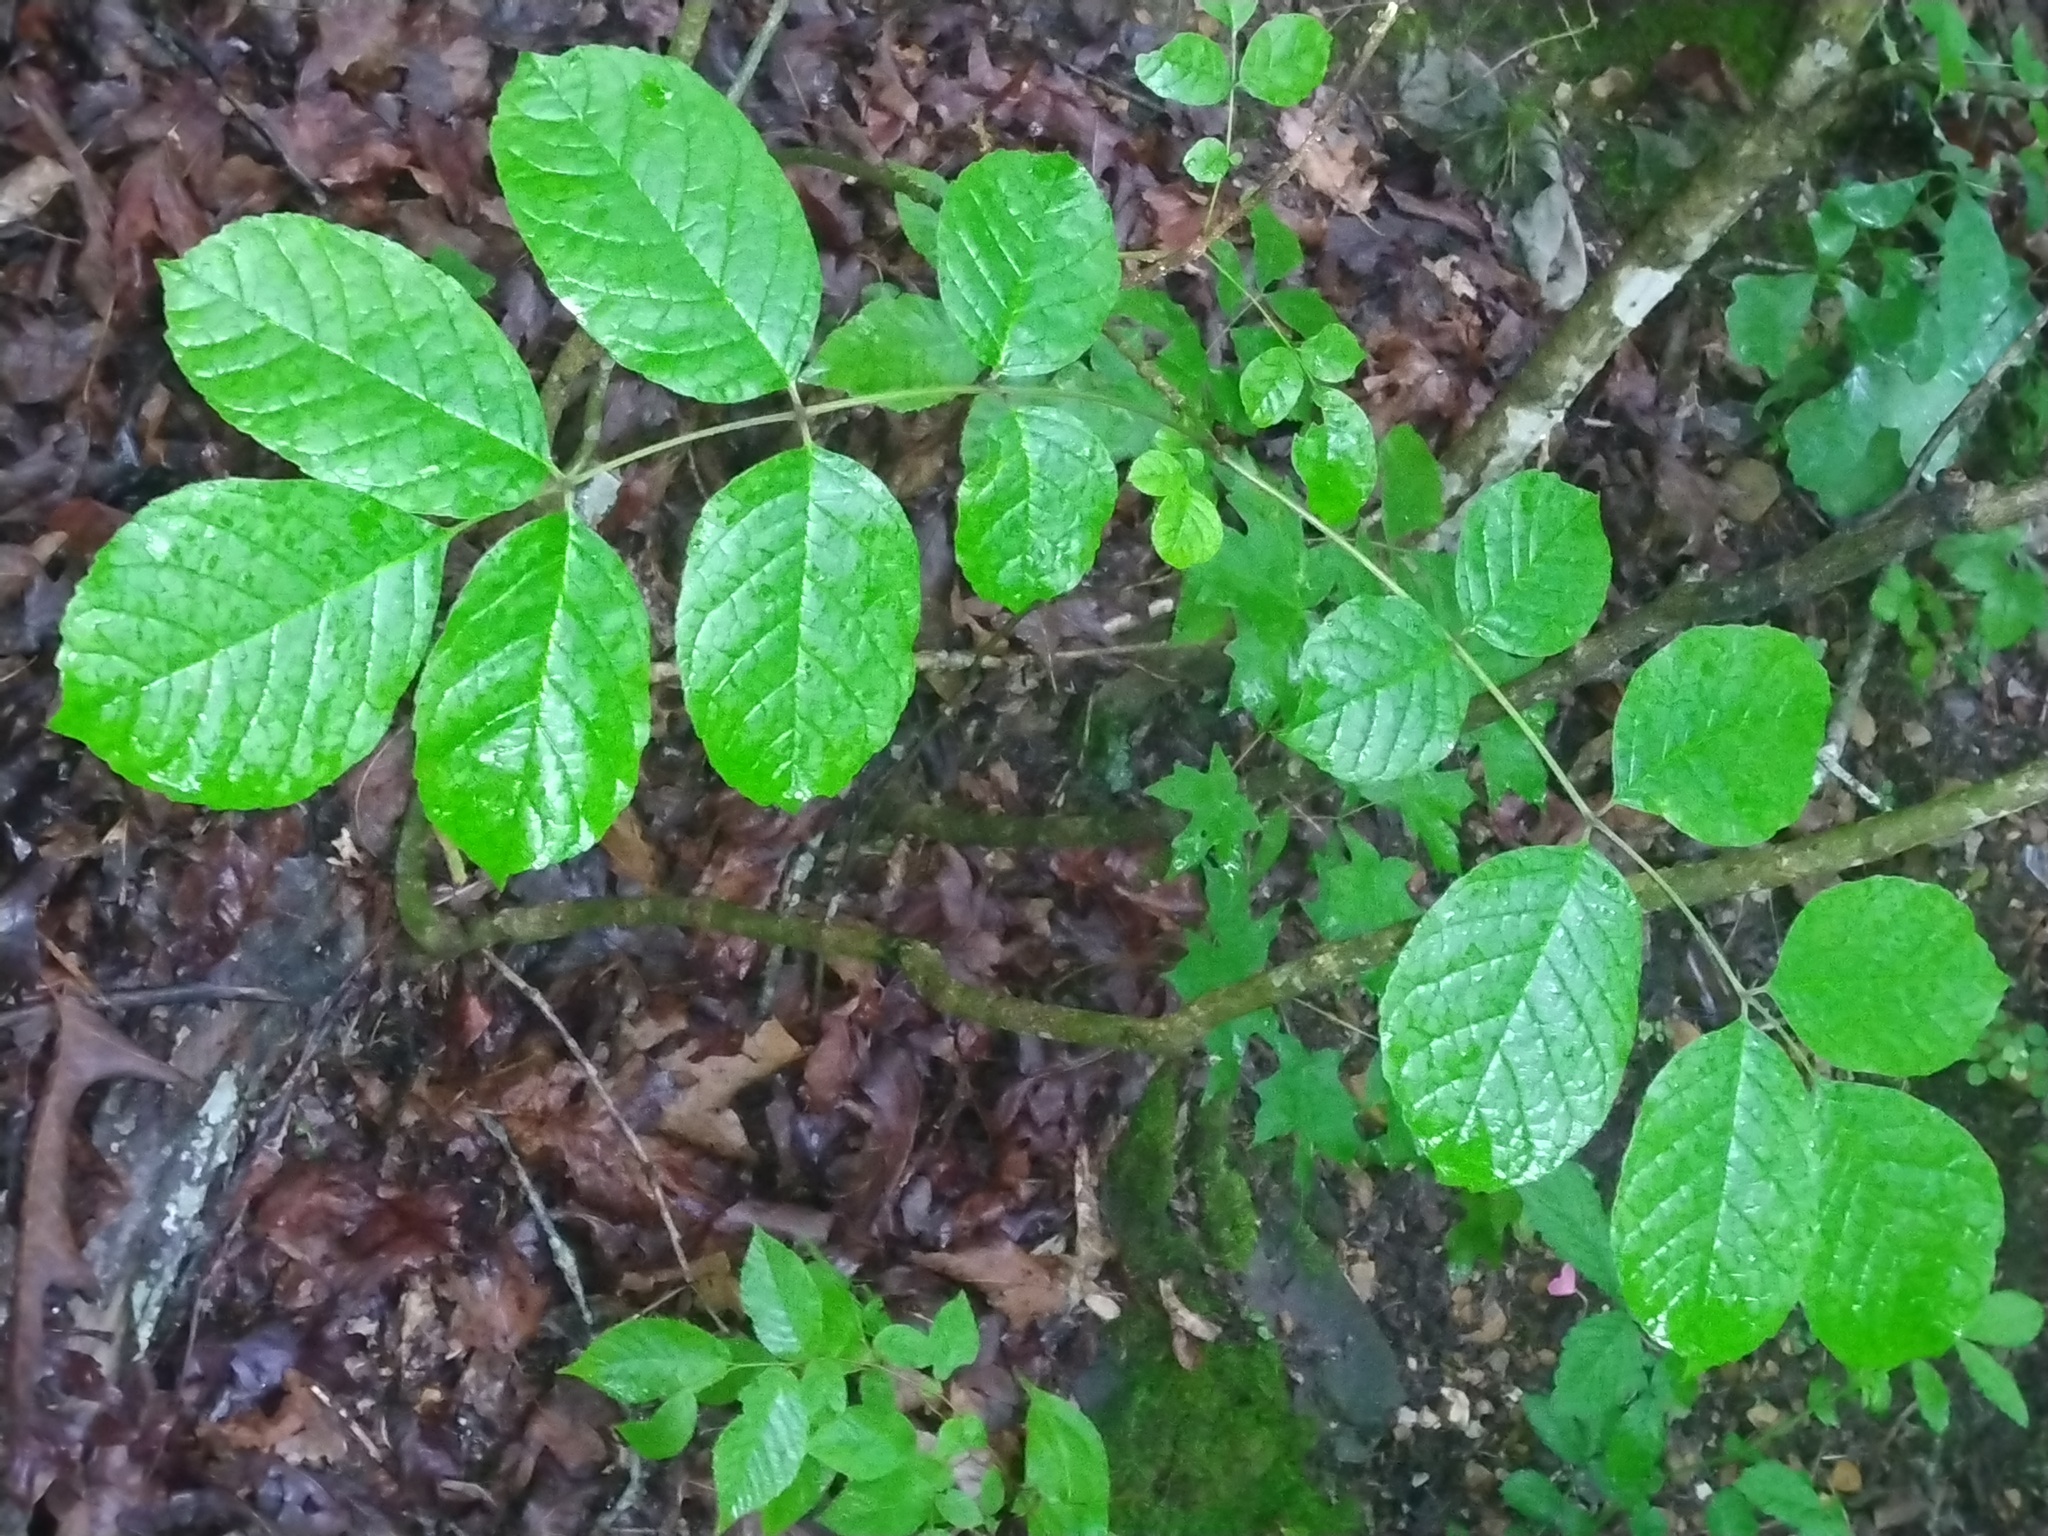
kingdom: Plantae
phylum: Tracheophyta
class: Magnoliopsida
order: Lamiales
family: Oleaceae
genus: Fraxinus
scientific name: Fraxinus americana
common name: White ash
